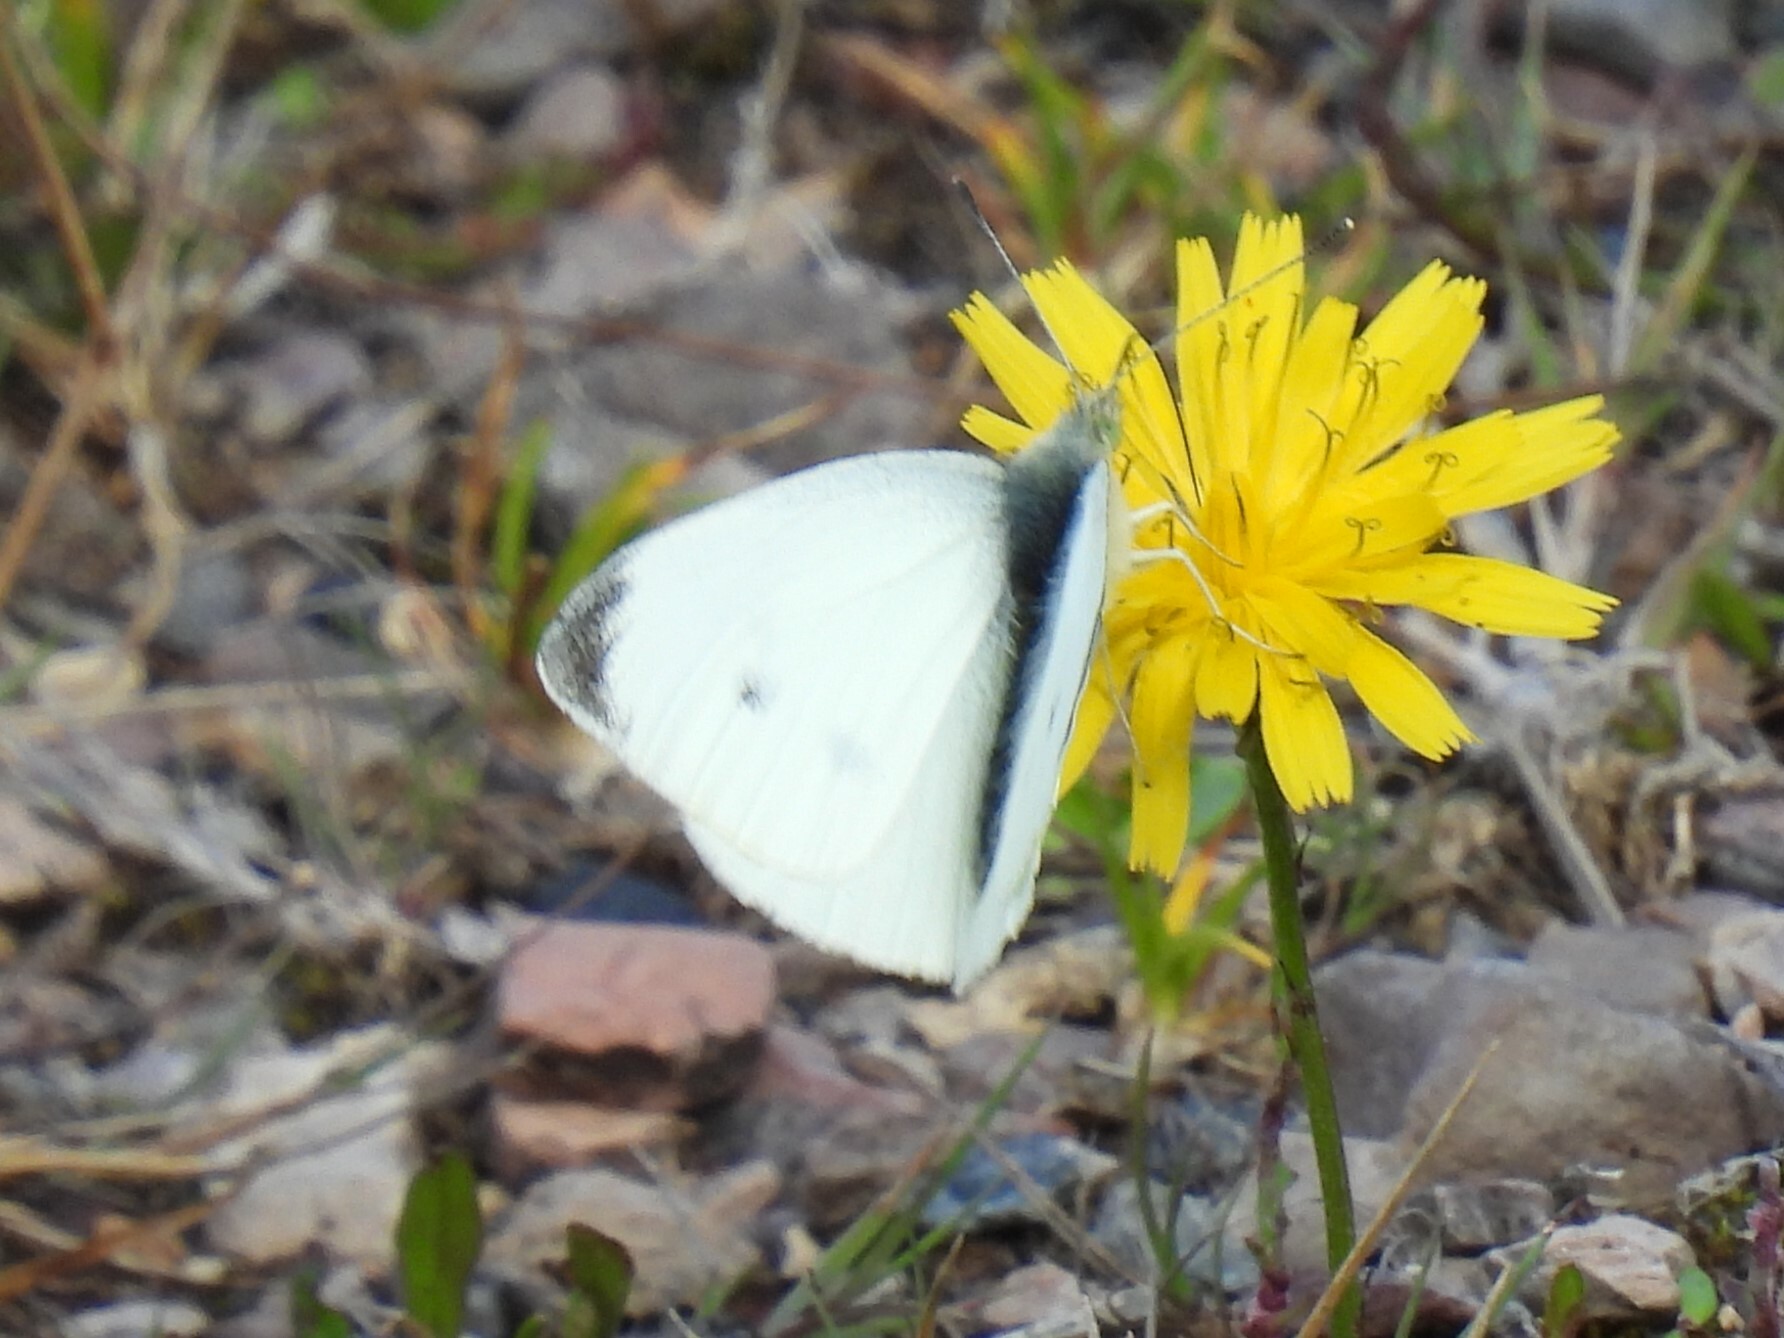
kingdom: Animalia
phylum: Arthropoda
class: Insecta
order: Lepidoptera
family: Pieridae
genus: Pieris
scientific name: Pieris rapae
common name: Small white
